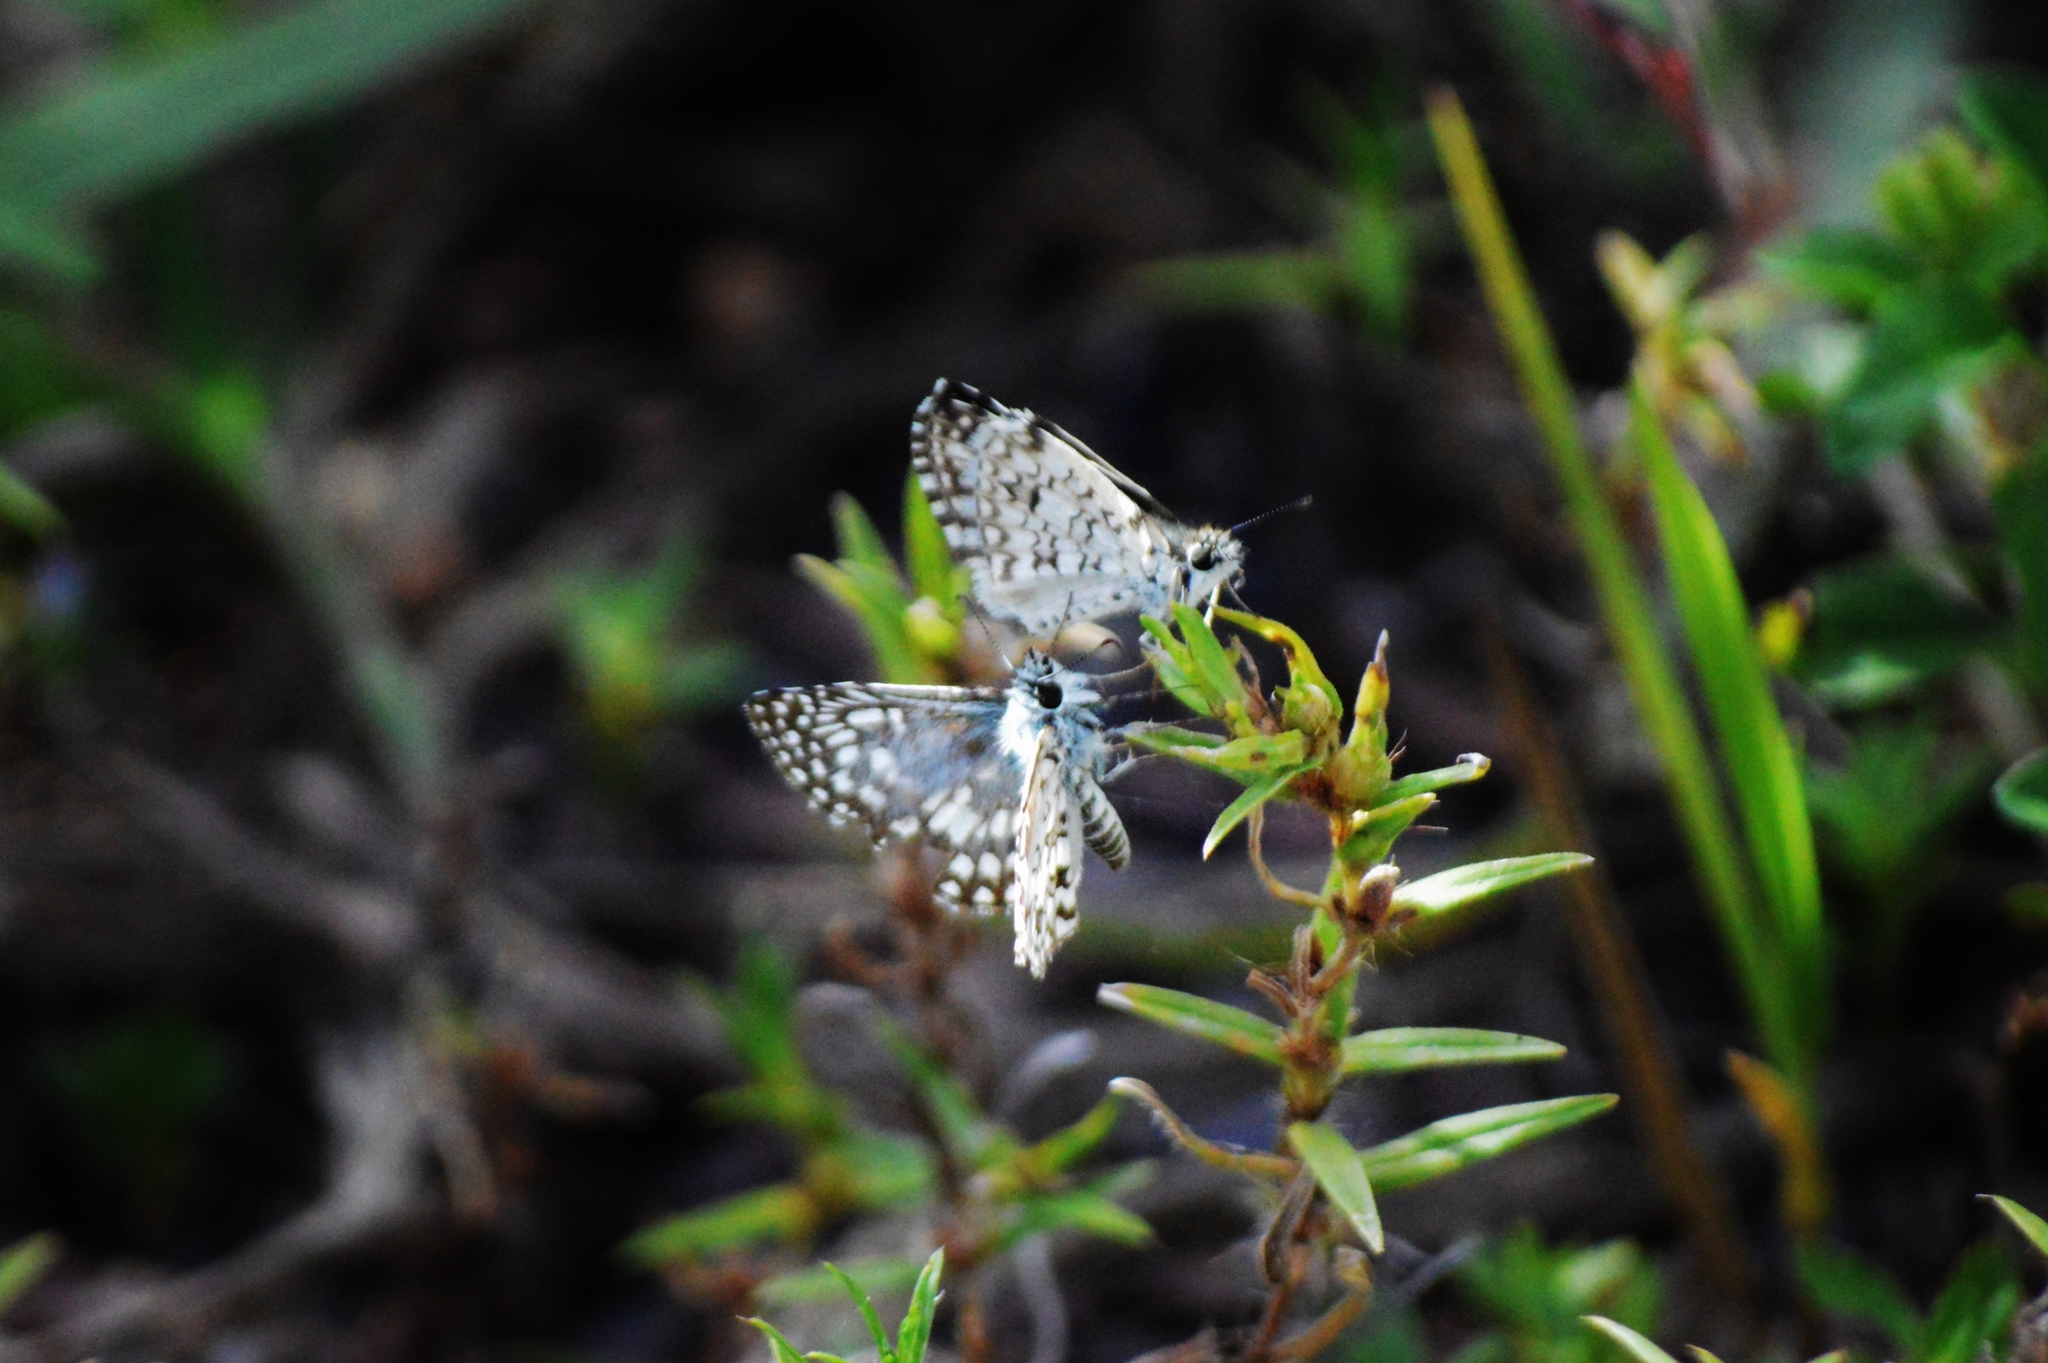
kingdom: Animalia
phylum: Arthropoda
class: Insecta
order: Lepidoptera
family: Hesperiidae
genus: Pyrgus
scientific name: Pyrgus oileus
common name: Tropical checkered-skipper
